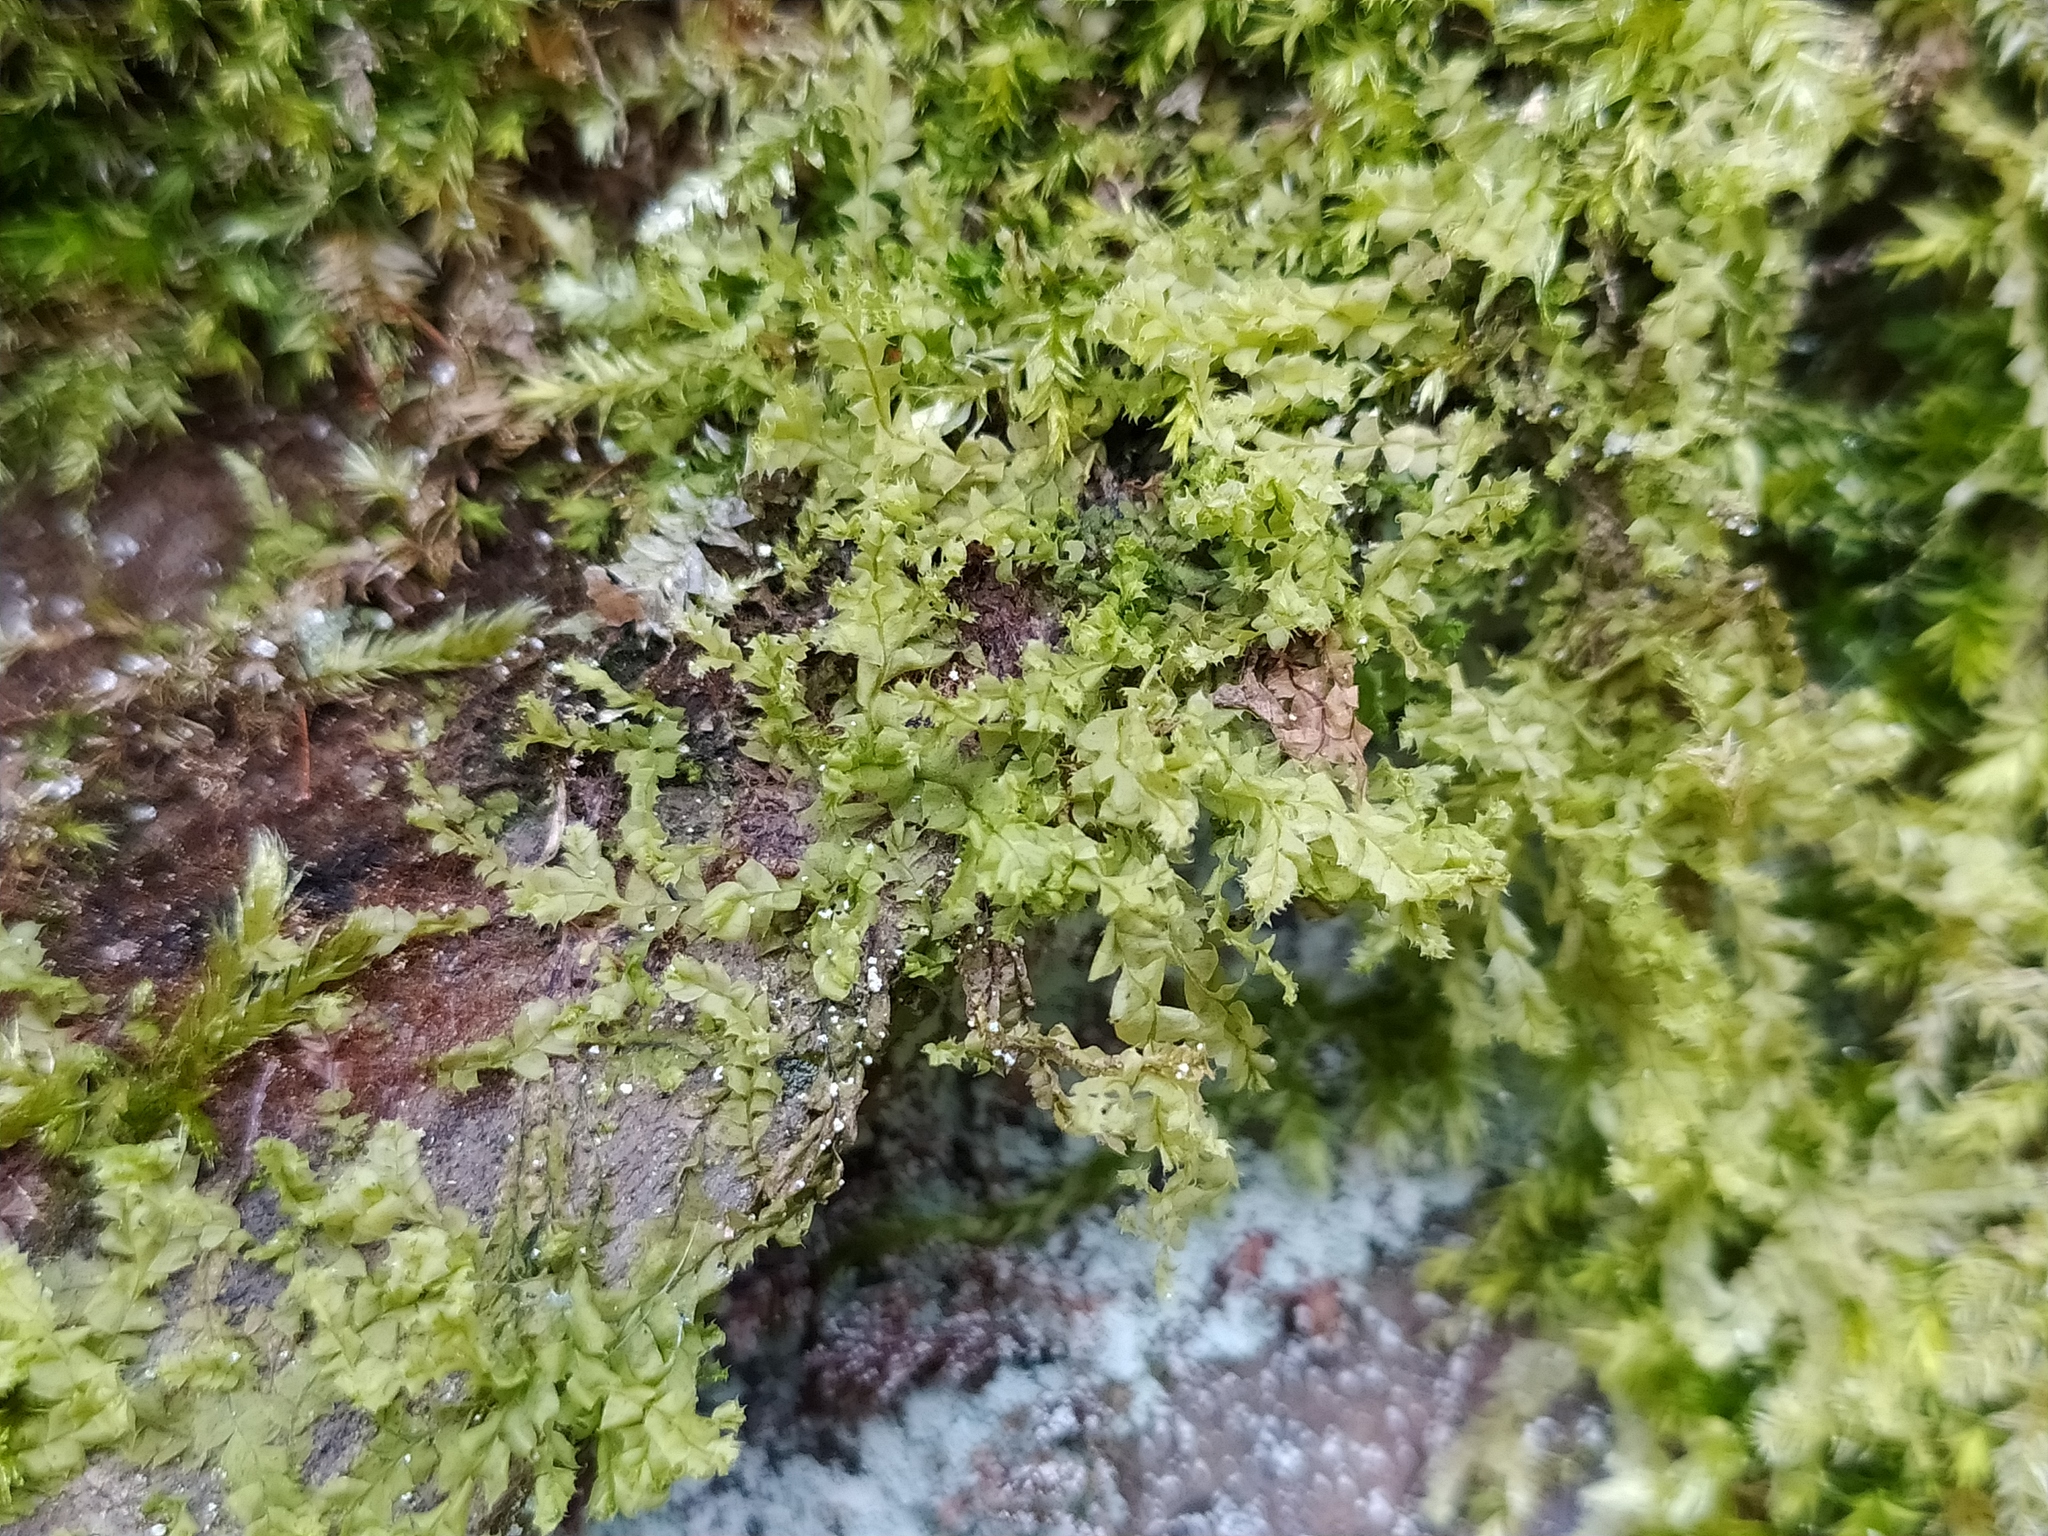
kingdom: Plantae
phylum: Marchantiophyta
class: Jungermanniopsida
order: Jungermanniales
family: Lophocoleaceae
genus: Lophocolea
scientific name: Lophocolea bidentata
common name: Bifid crestwort
